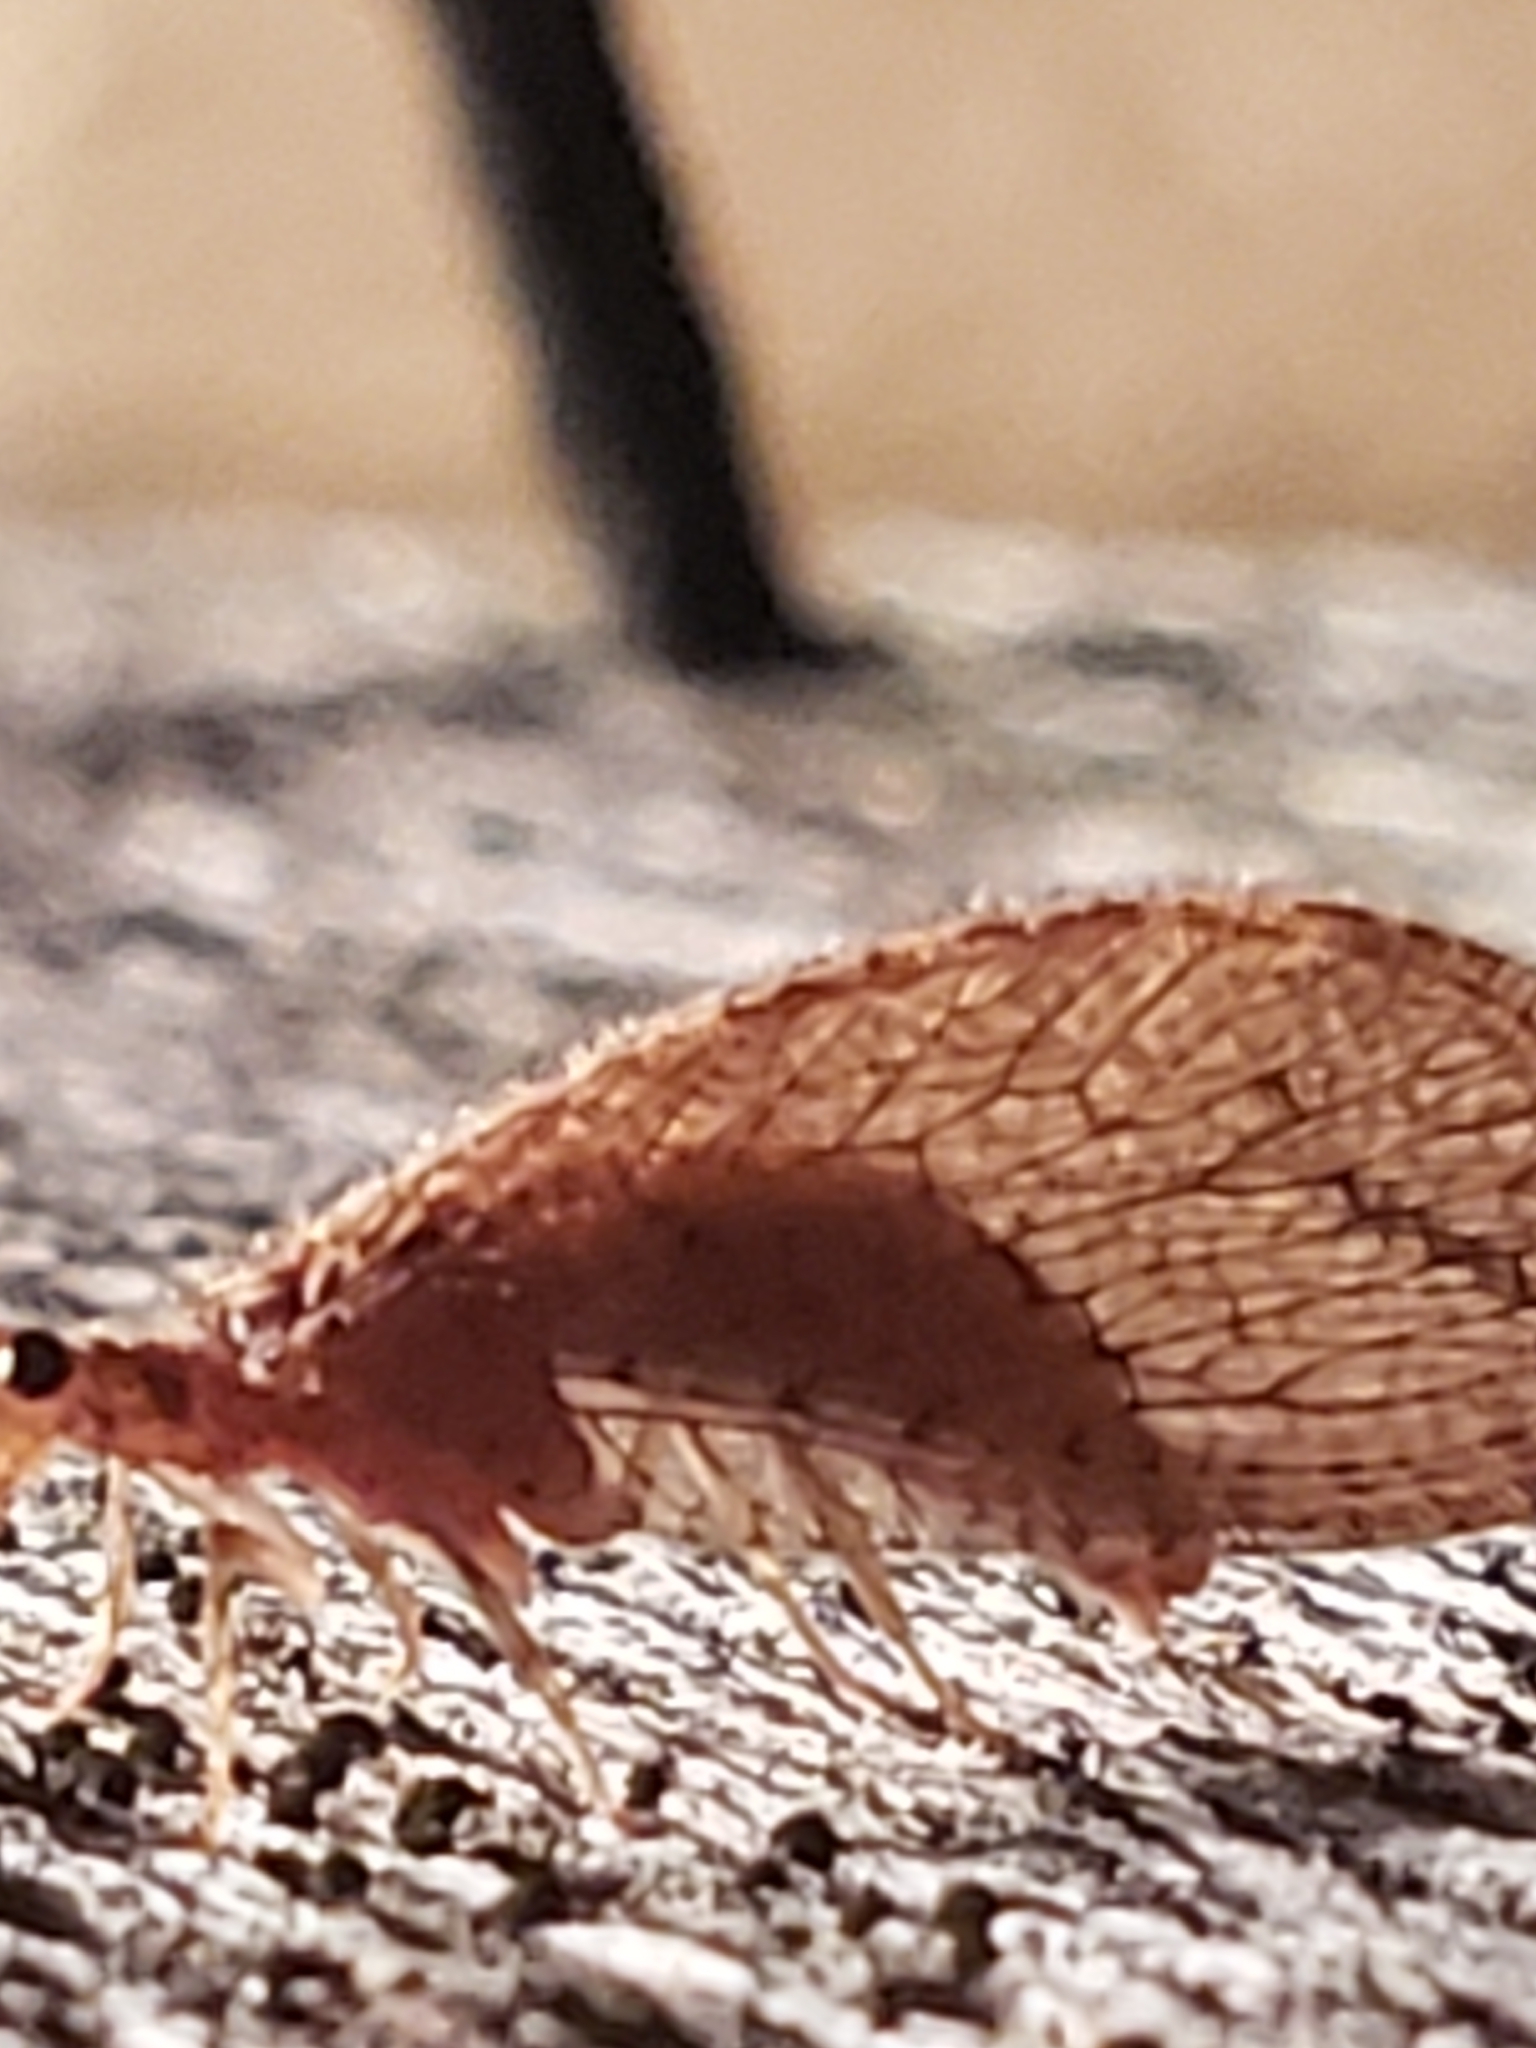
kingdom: Animalia
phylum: Arthropoda
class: Insecta
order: Neuroptera
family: Hemerobiidae
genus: Micromus
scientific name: Micromus posticus
